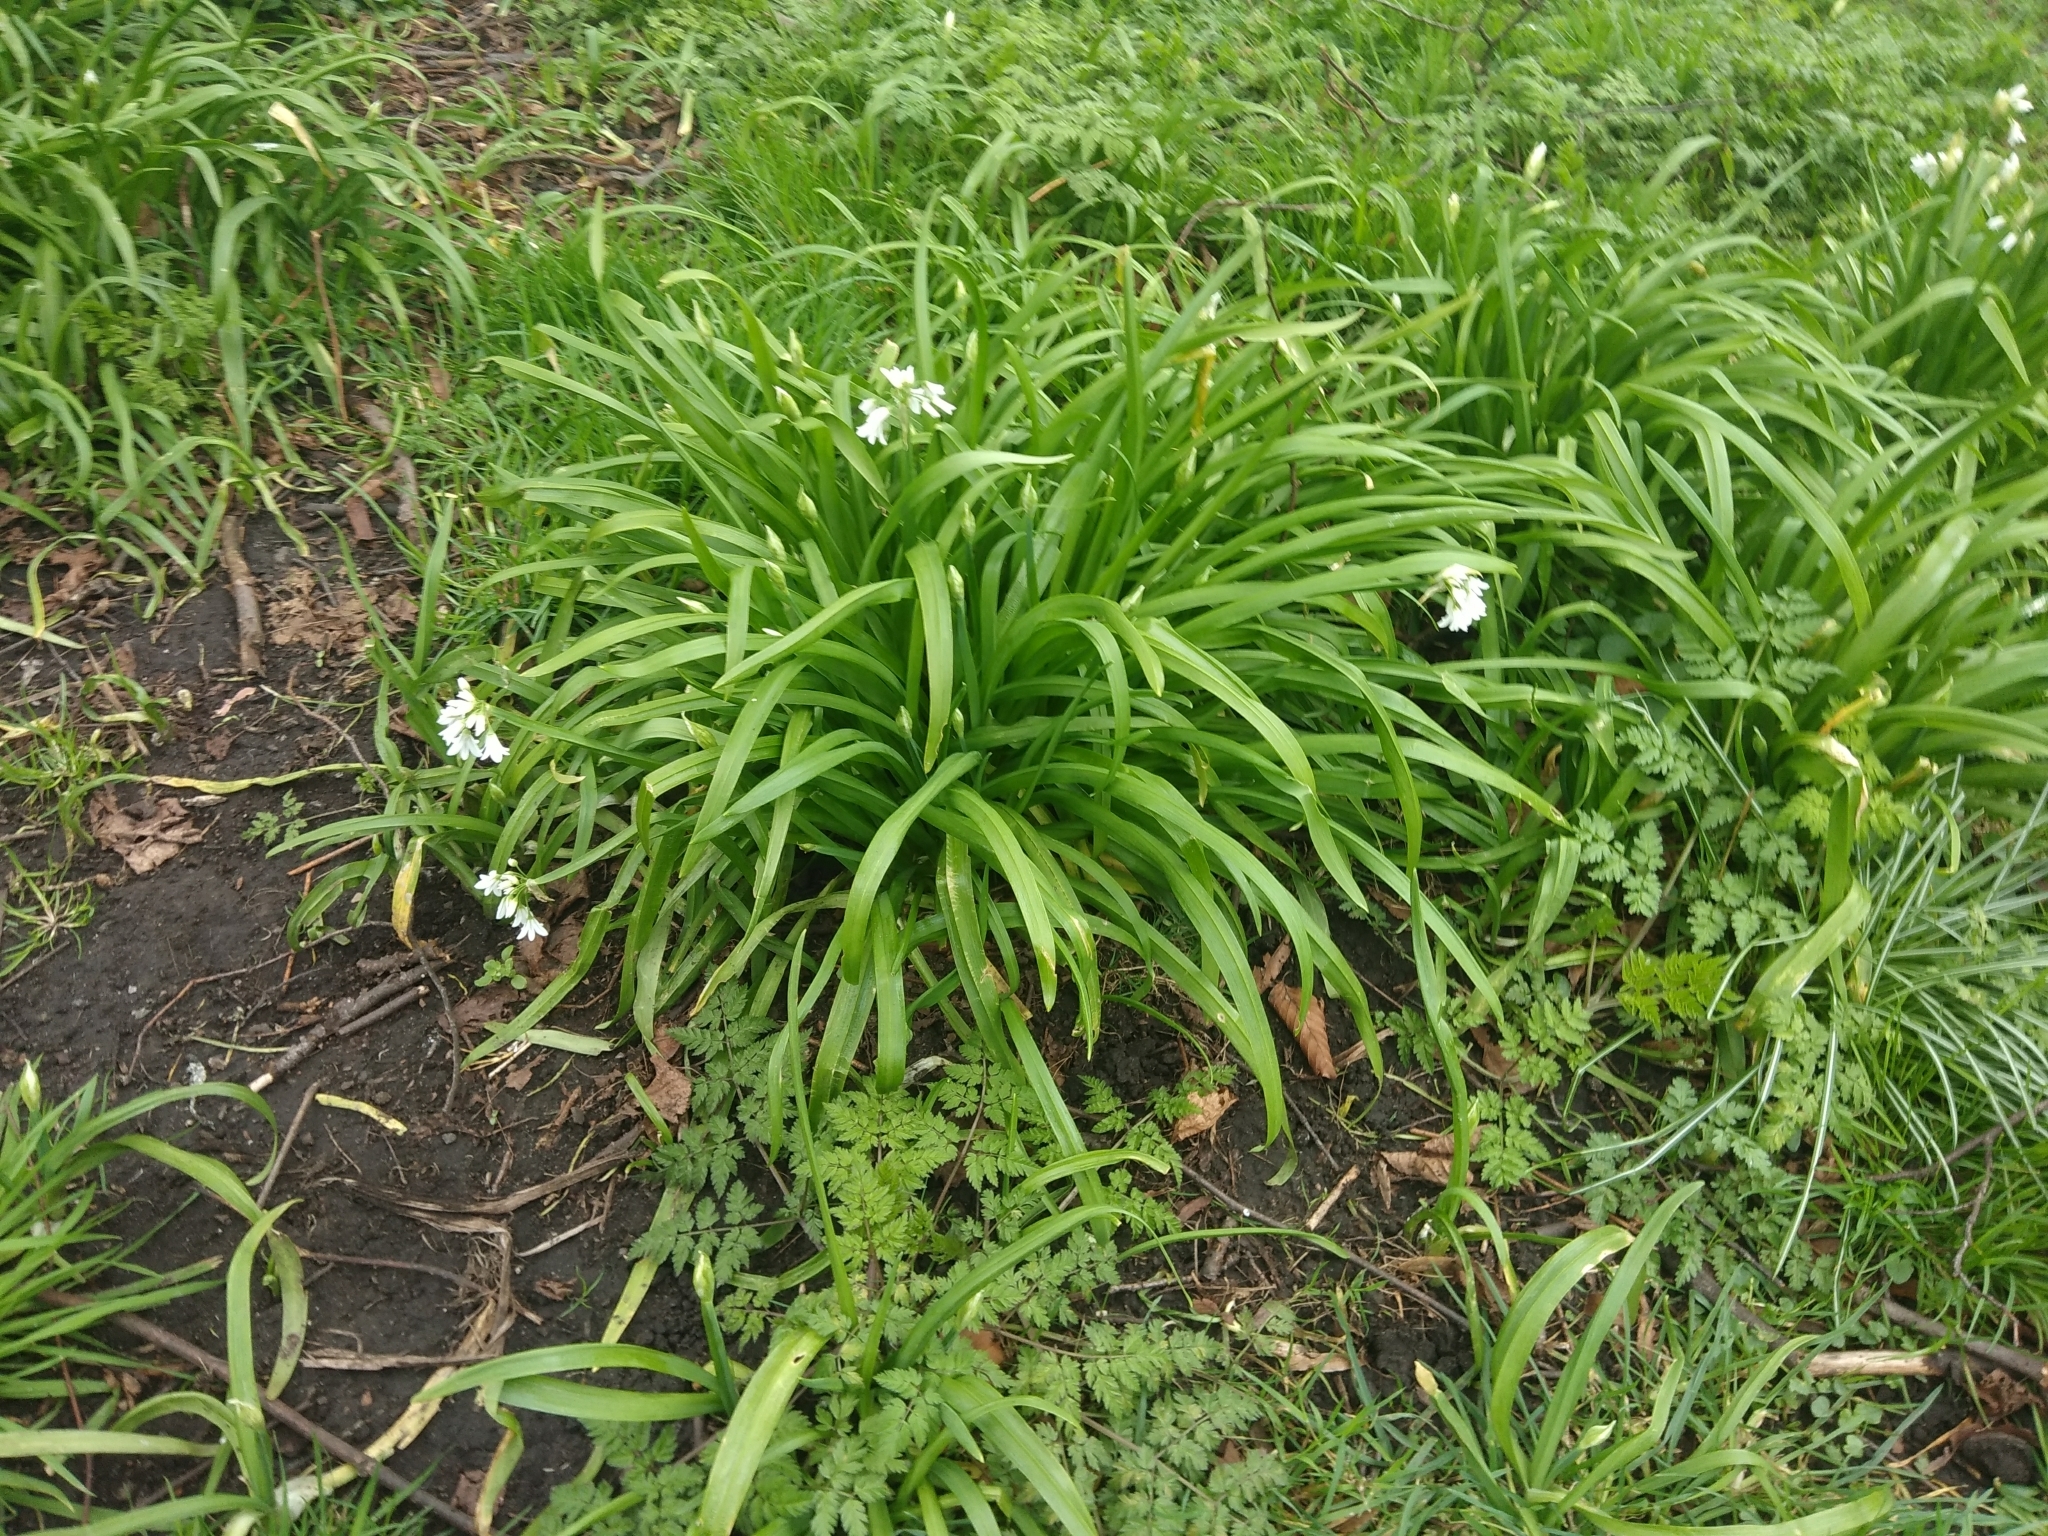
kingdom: Plantae
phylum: Tracheophyta
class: Liliopsida
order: Asparagales
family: Amaryllidaceae
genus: Allium
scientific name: Allium triquetrum
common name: Three-cornered garlic
